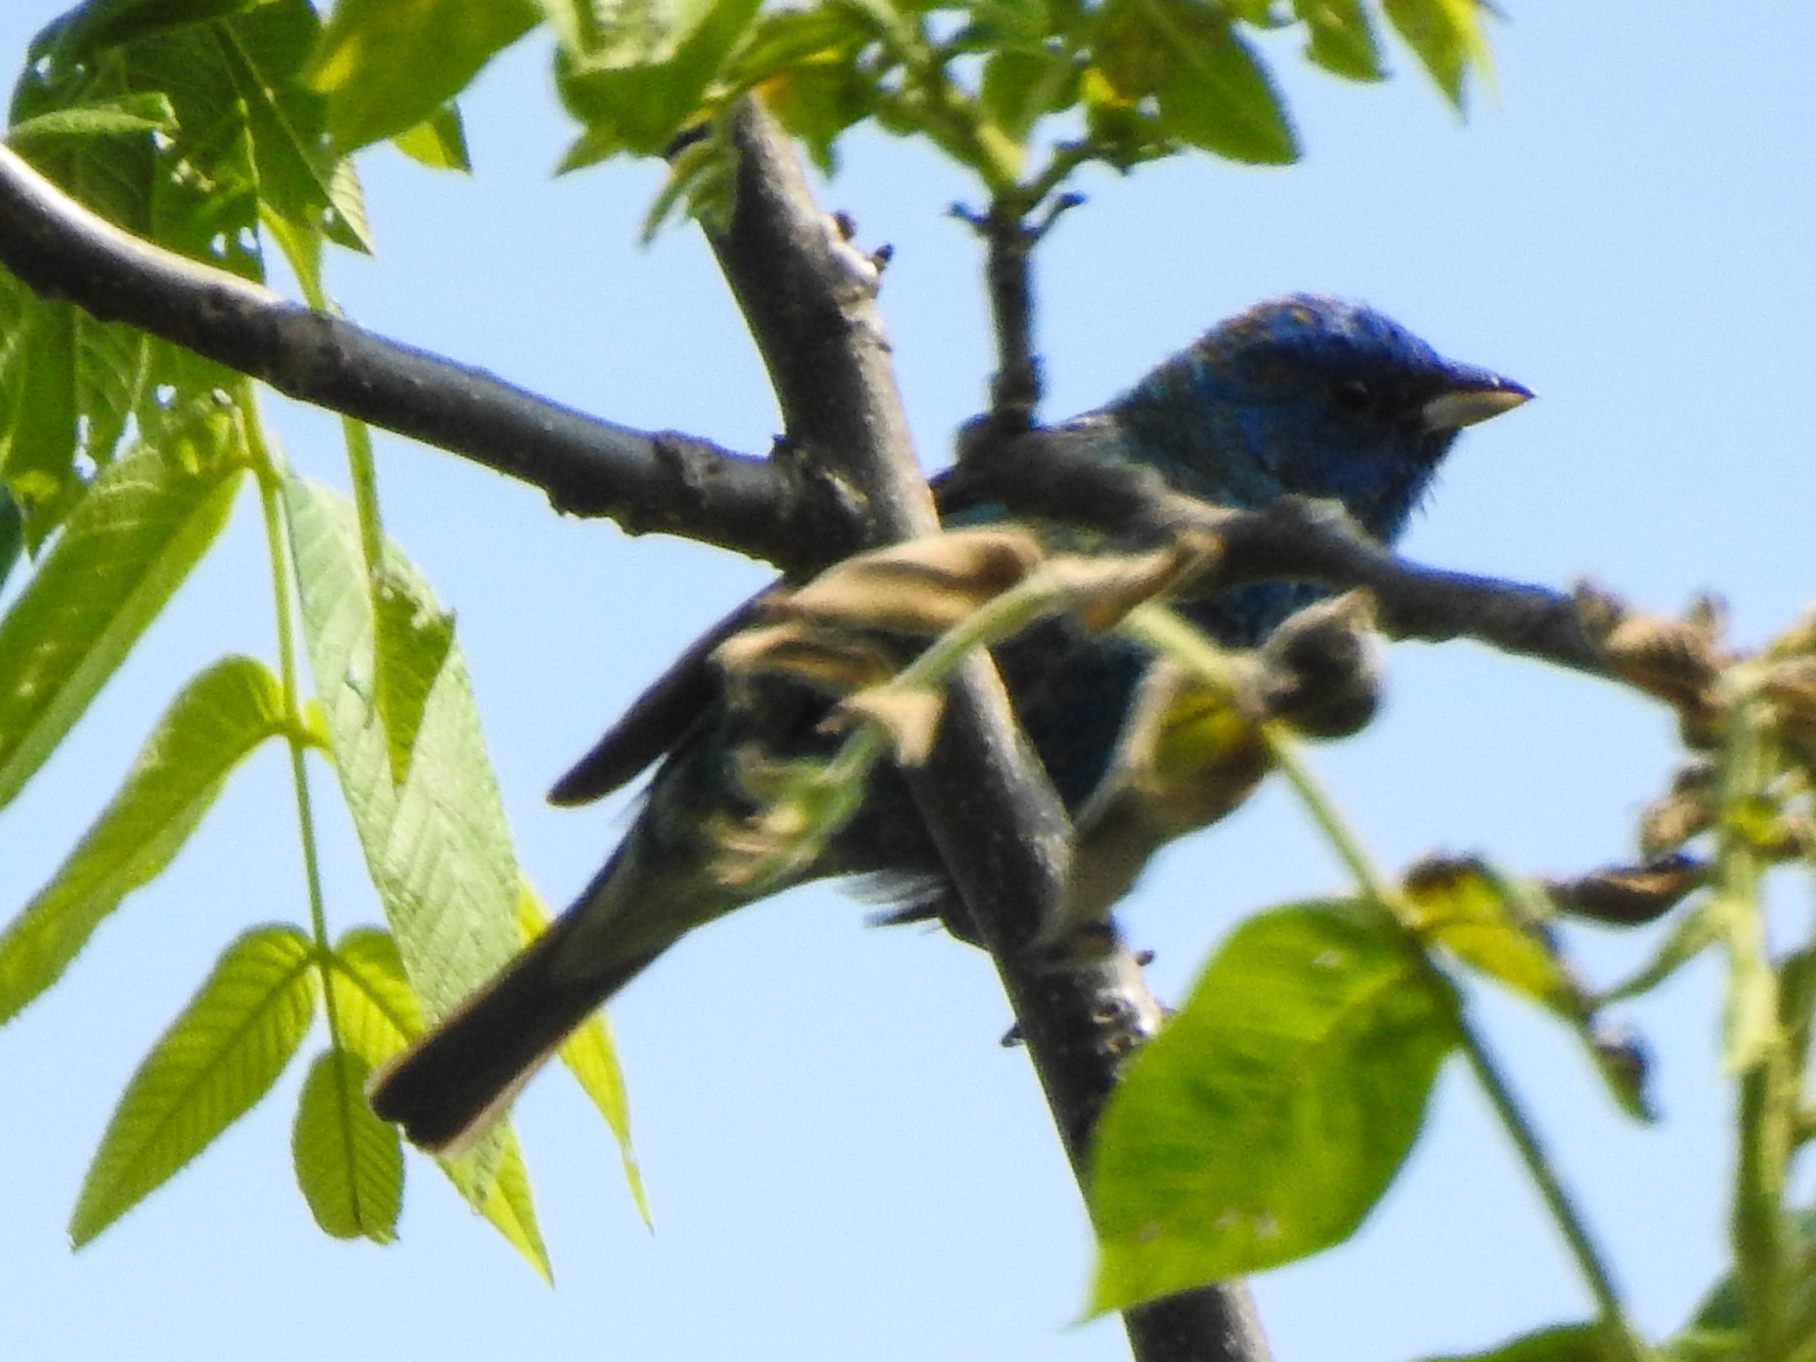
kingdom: Animalia
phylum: Chordata
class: Aves
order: Passeriformes
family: Cardinalidae
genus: Passerina
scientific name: Passerina cyanea
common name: Indigo bunting
